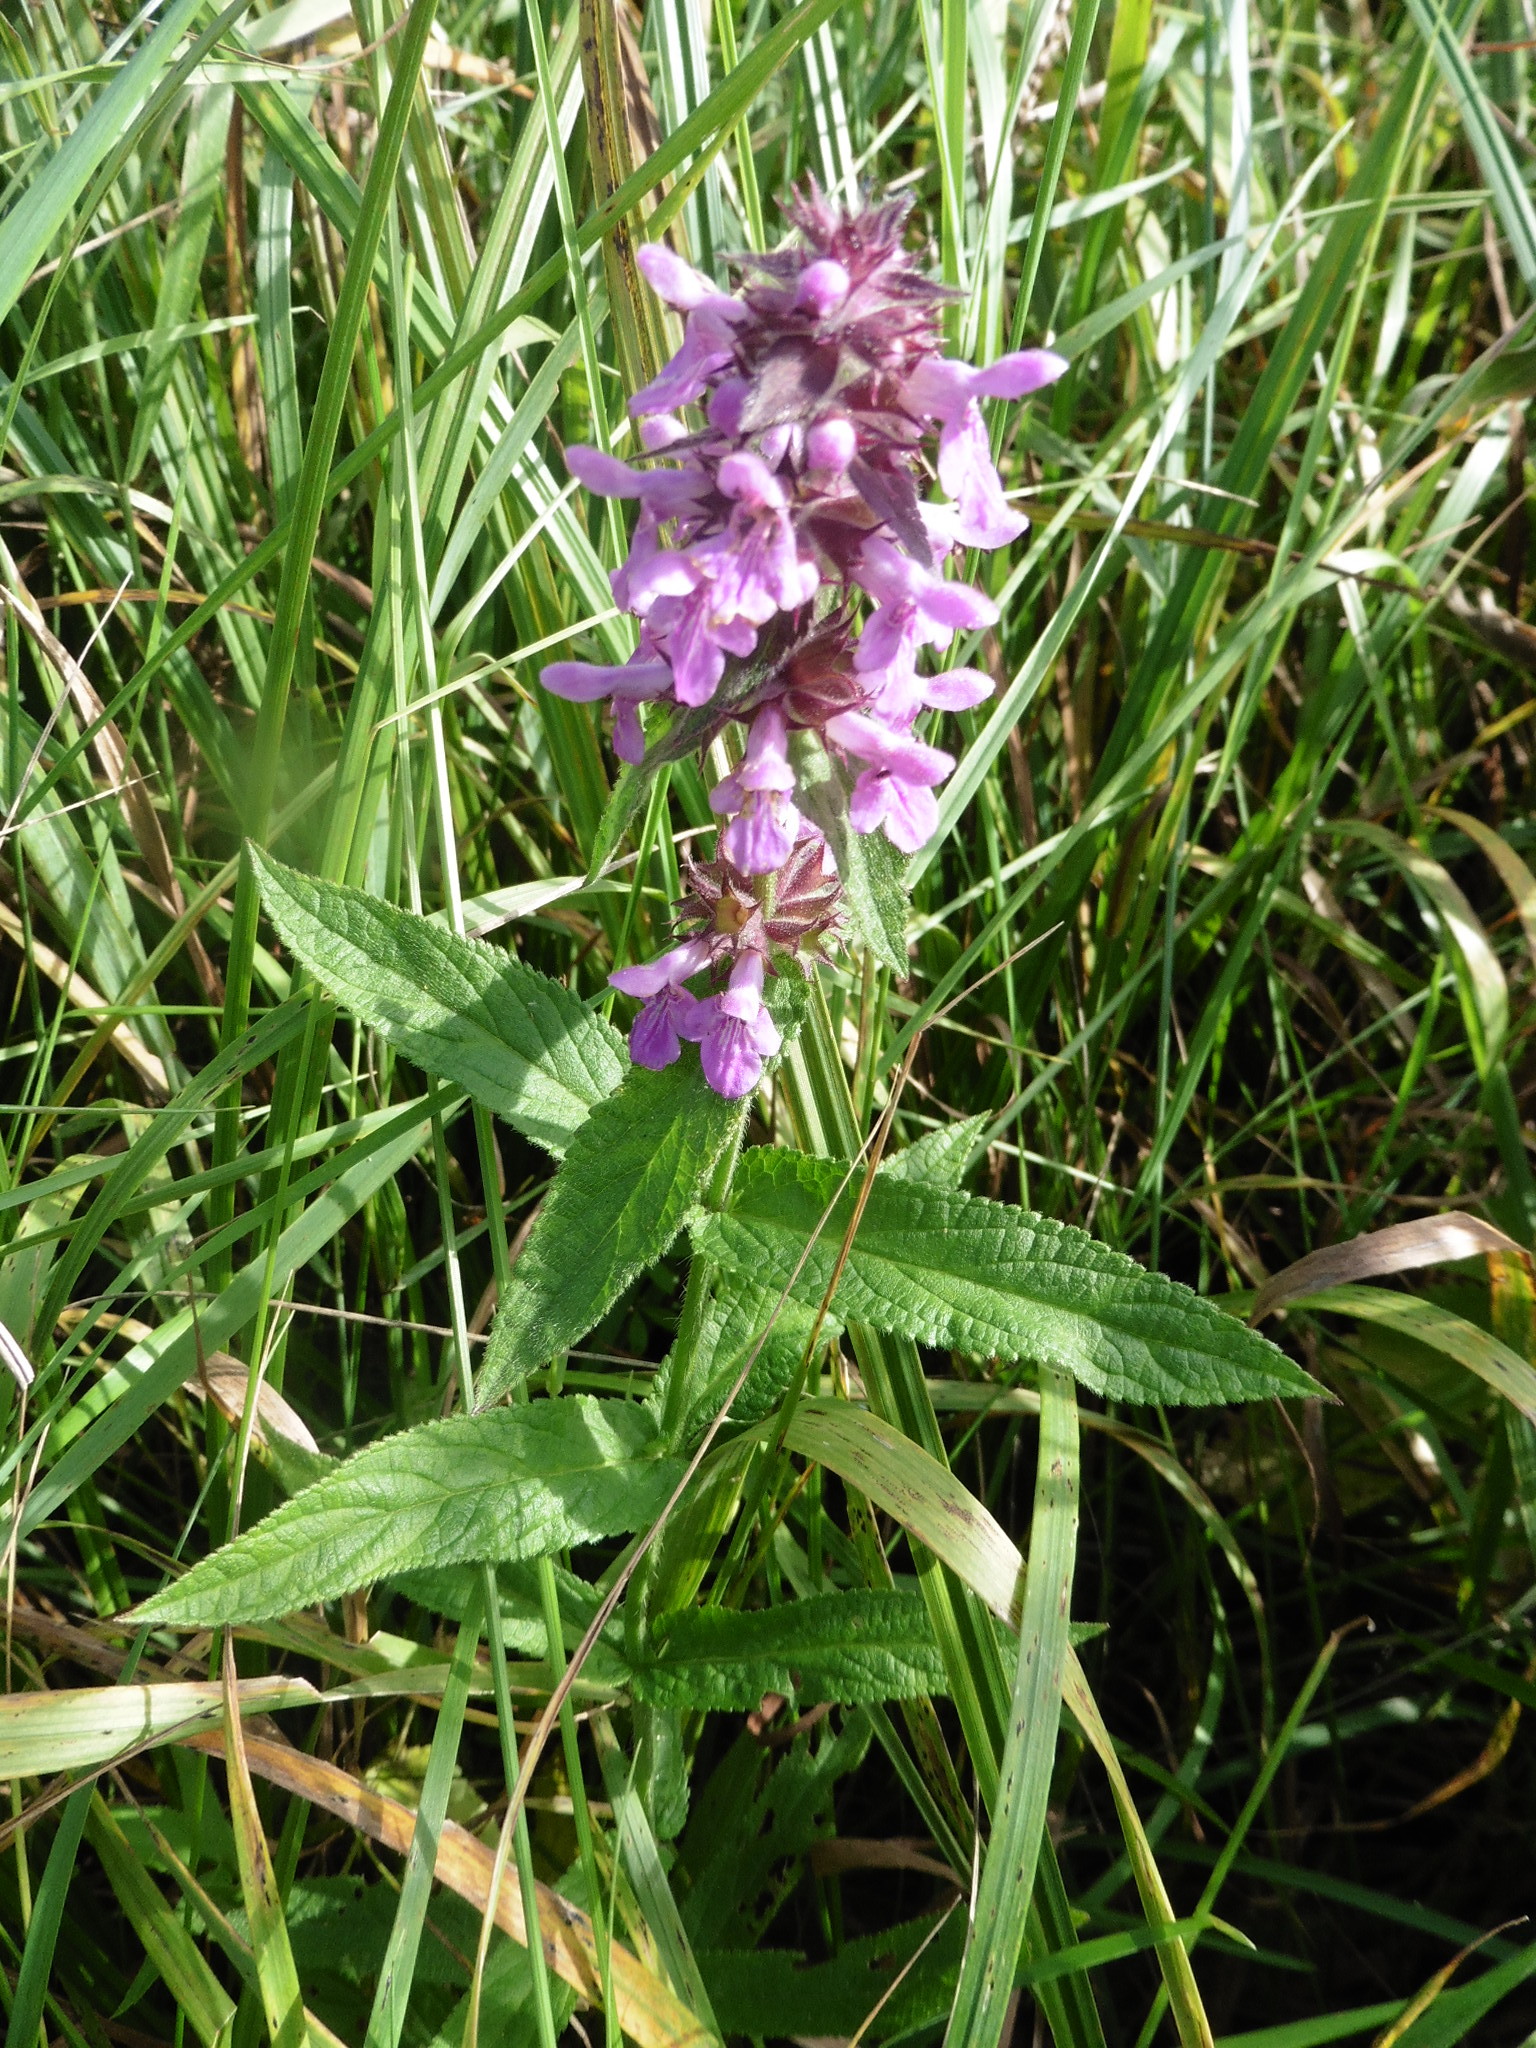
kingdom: Plantae
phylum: Tracheophyta
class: Magnoliopsida
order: Lamiales
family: Lamiaceae
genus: Stachys
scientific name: Stachys palustris
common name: Marsh woundwort
